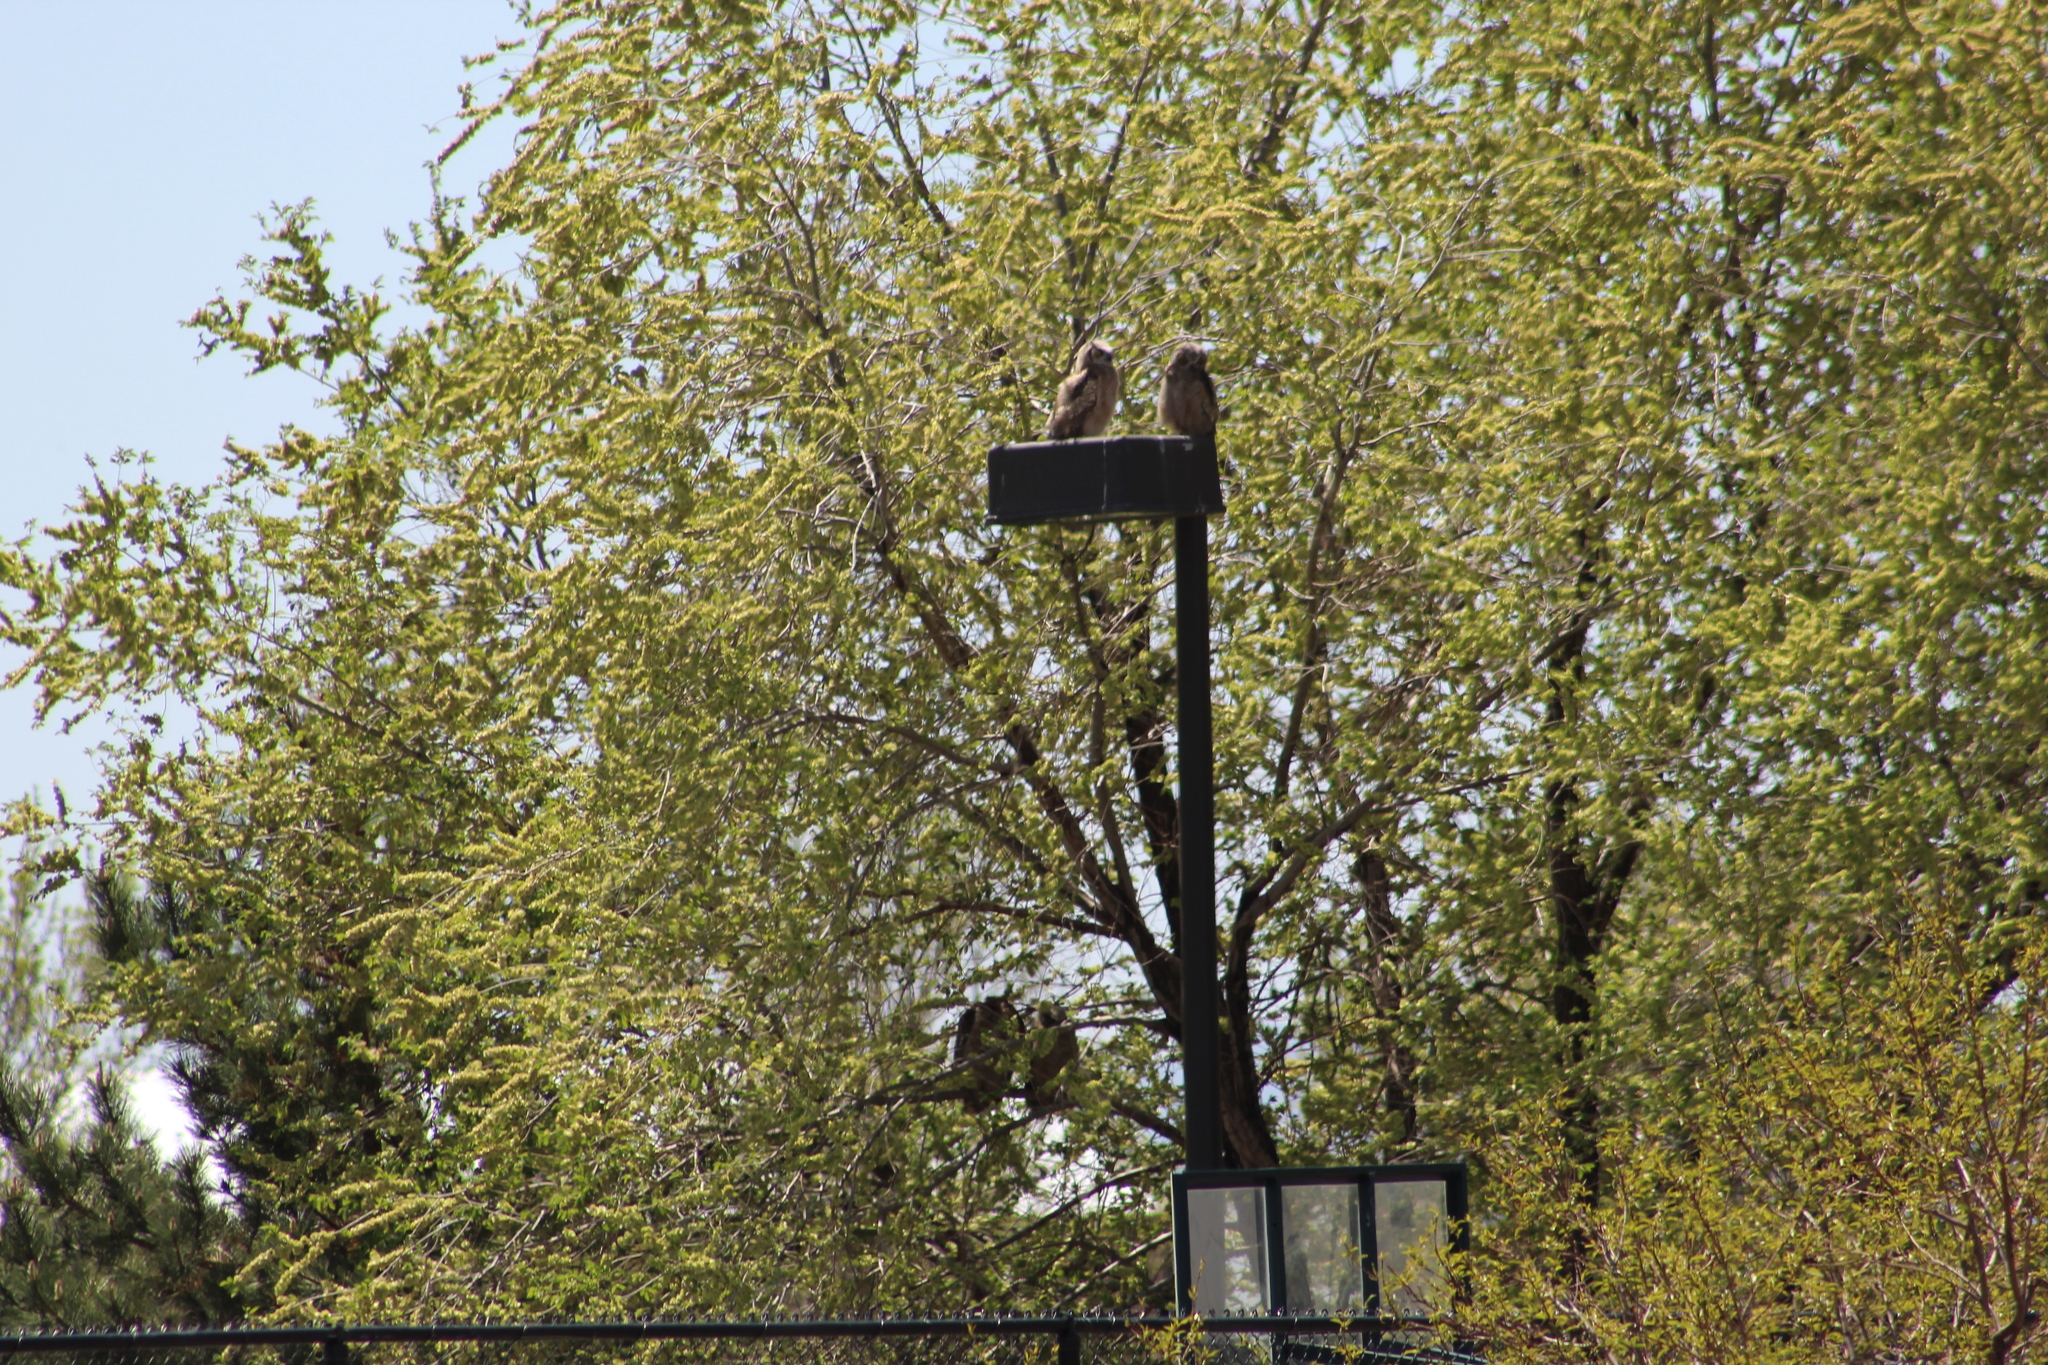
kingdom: Animalia
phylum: Chordata
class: Aves
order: Strigiformes
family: Strigidae
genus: Bubo
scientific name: Bubo virginianus
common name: Great horned owl
